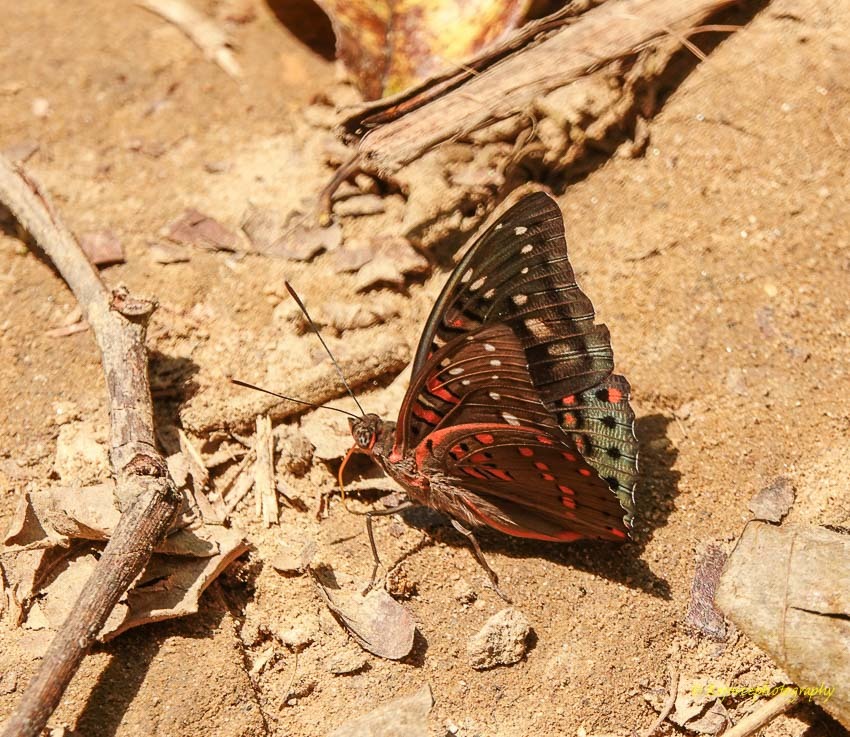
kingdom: Animalia
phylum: Arthropoda
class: Insecta
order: Lepidoptera
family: Nymphalidae
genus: Euthalia
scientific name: Euthalia lubentina
